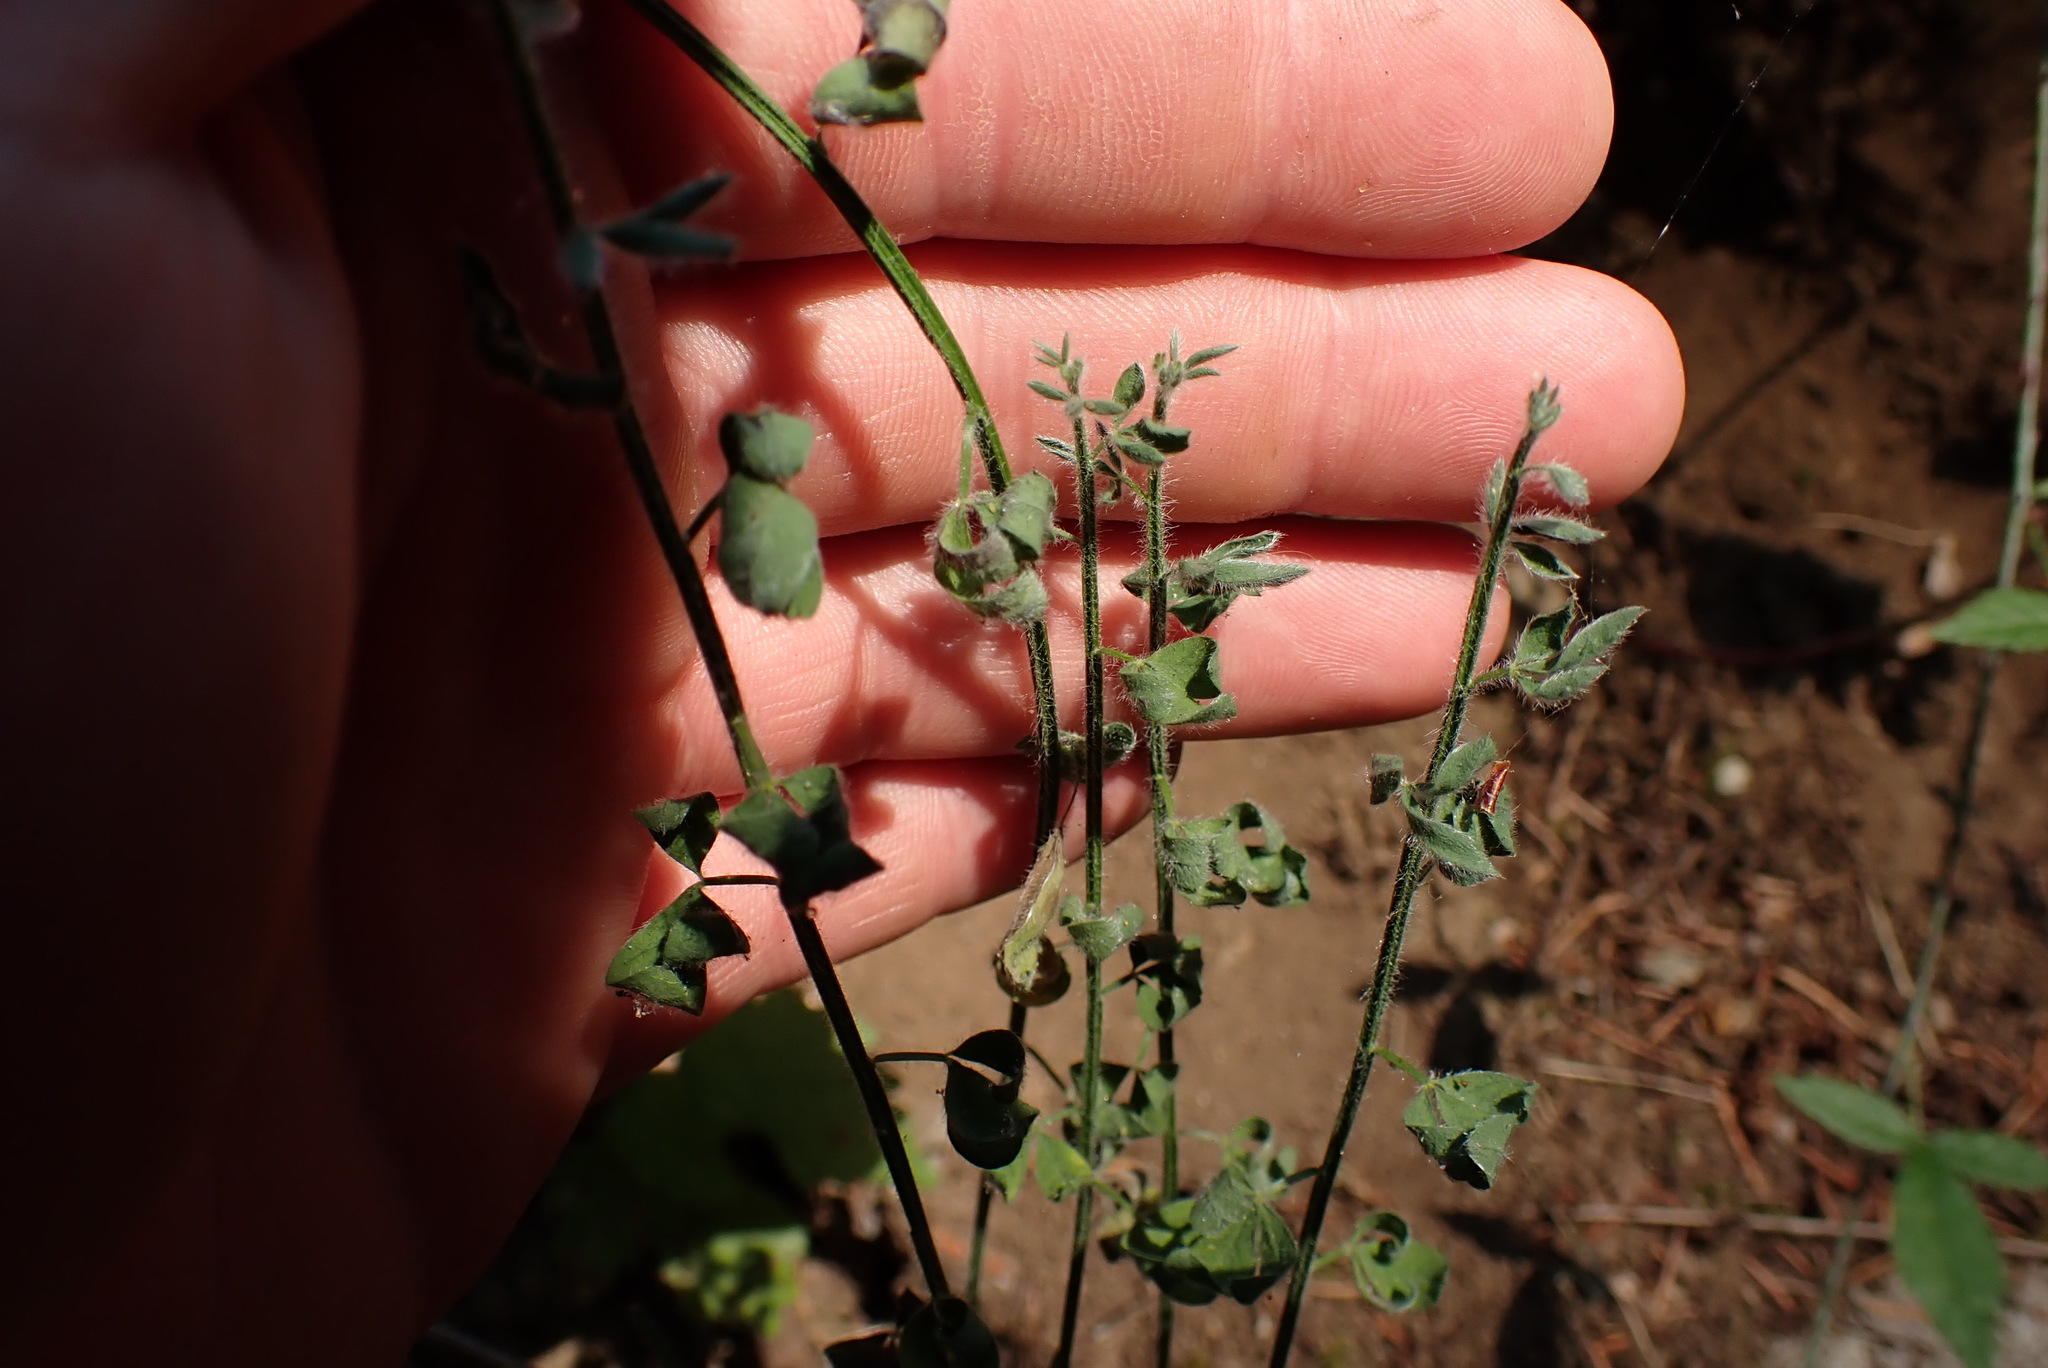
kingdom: Plantae
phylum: Tracheophyta
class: Magnoliopsida
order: Fabales
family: Fabaceae
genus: Cytisus
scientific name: Cytisus scoparius
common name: Scotch broom
